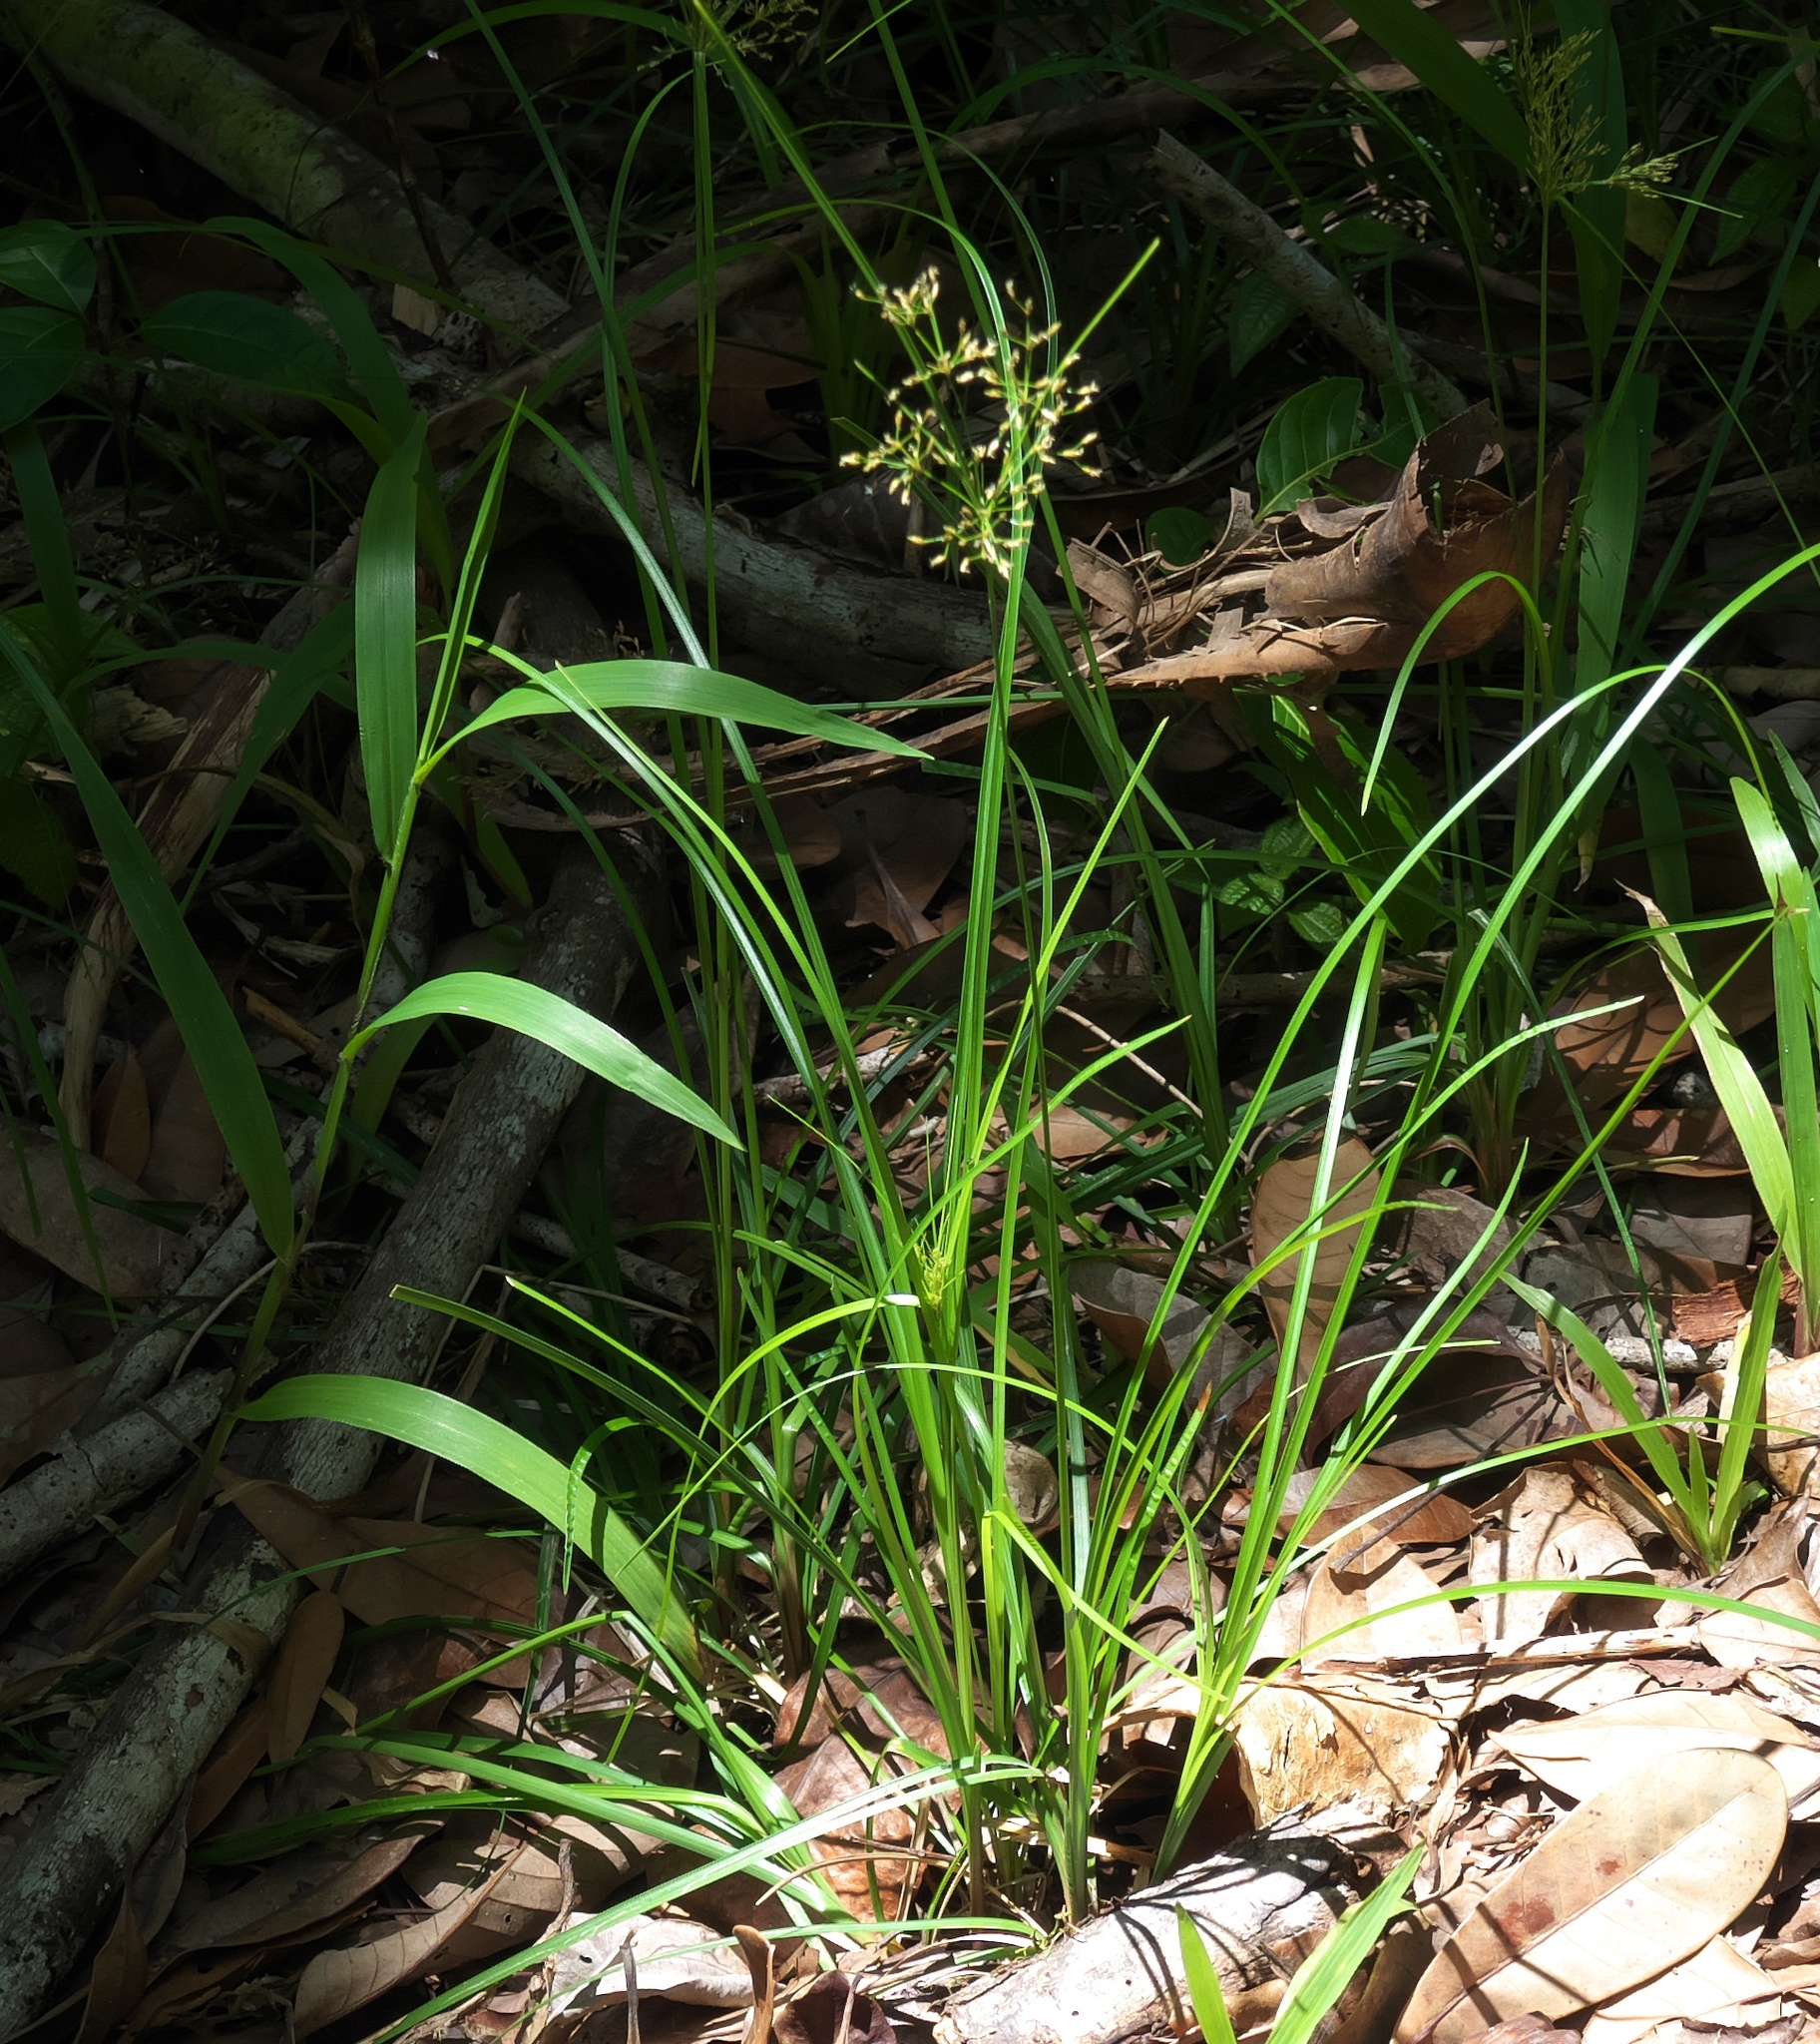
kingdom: Plantae
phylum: Tracheophyta
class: Liliopsida
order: Poales
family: Cyperaceae
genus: Fimbristylis
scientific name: Fimbristylis littoralis
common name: Fimbry
